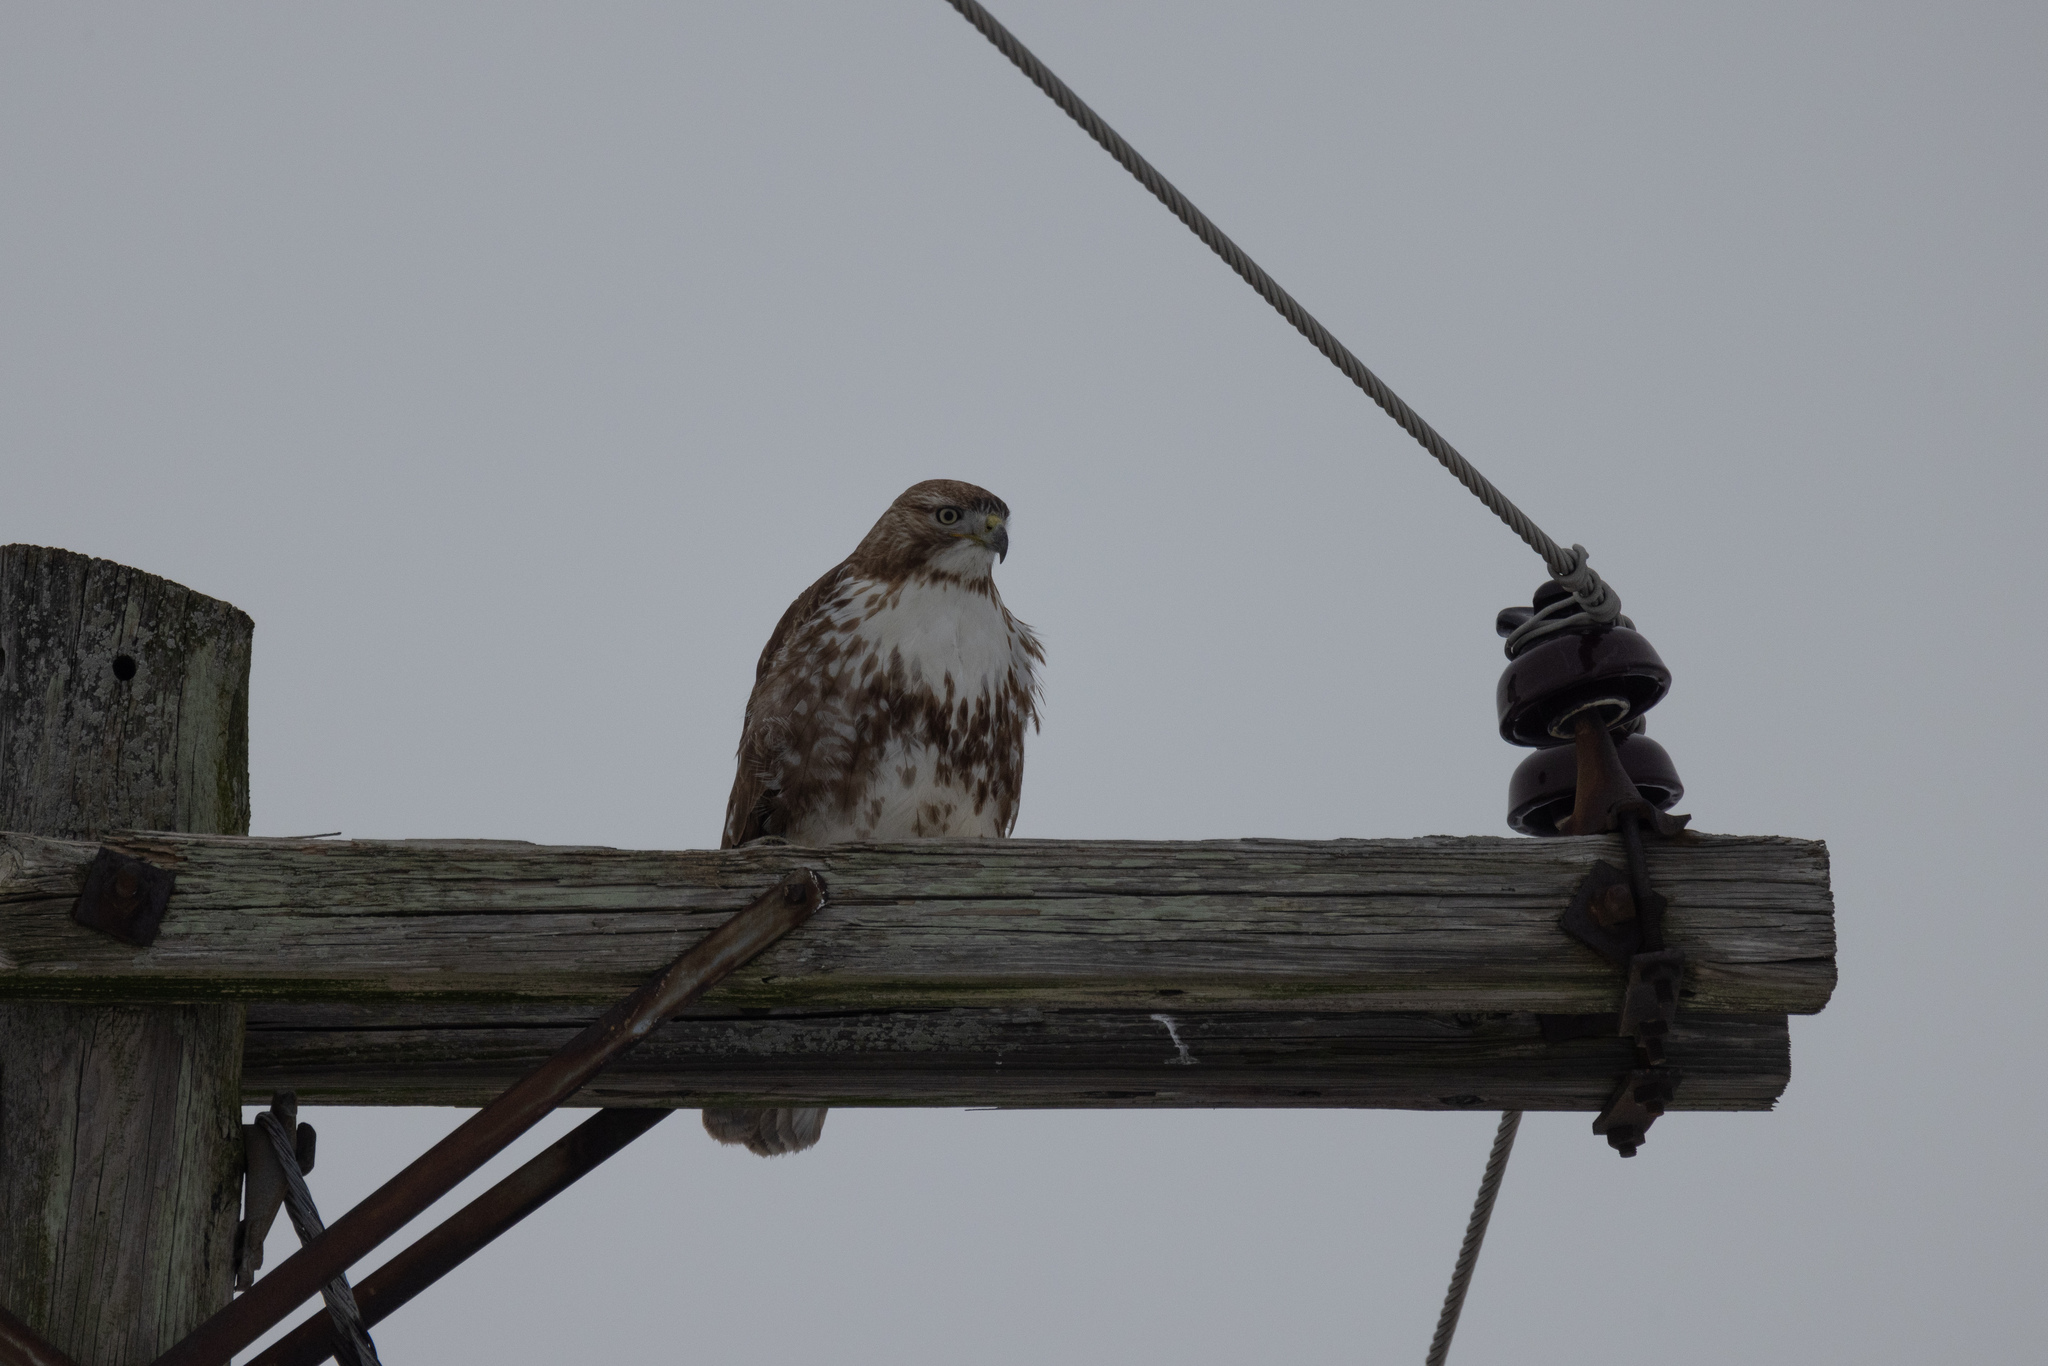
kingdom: Animalia
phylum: Chordata
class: Aves
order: Accipitriformes
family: Accipitridae
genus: Buteo
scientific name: Buteo jamaicensis
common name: Red-tailed hawk
